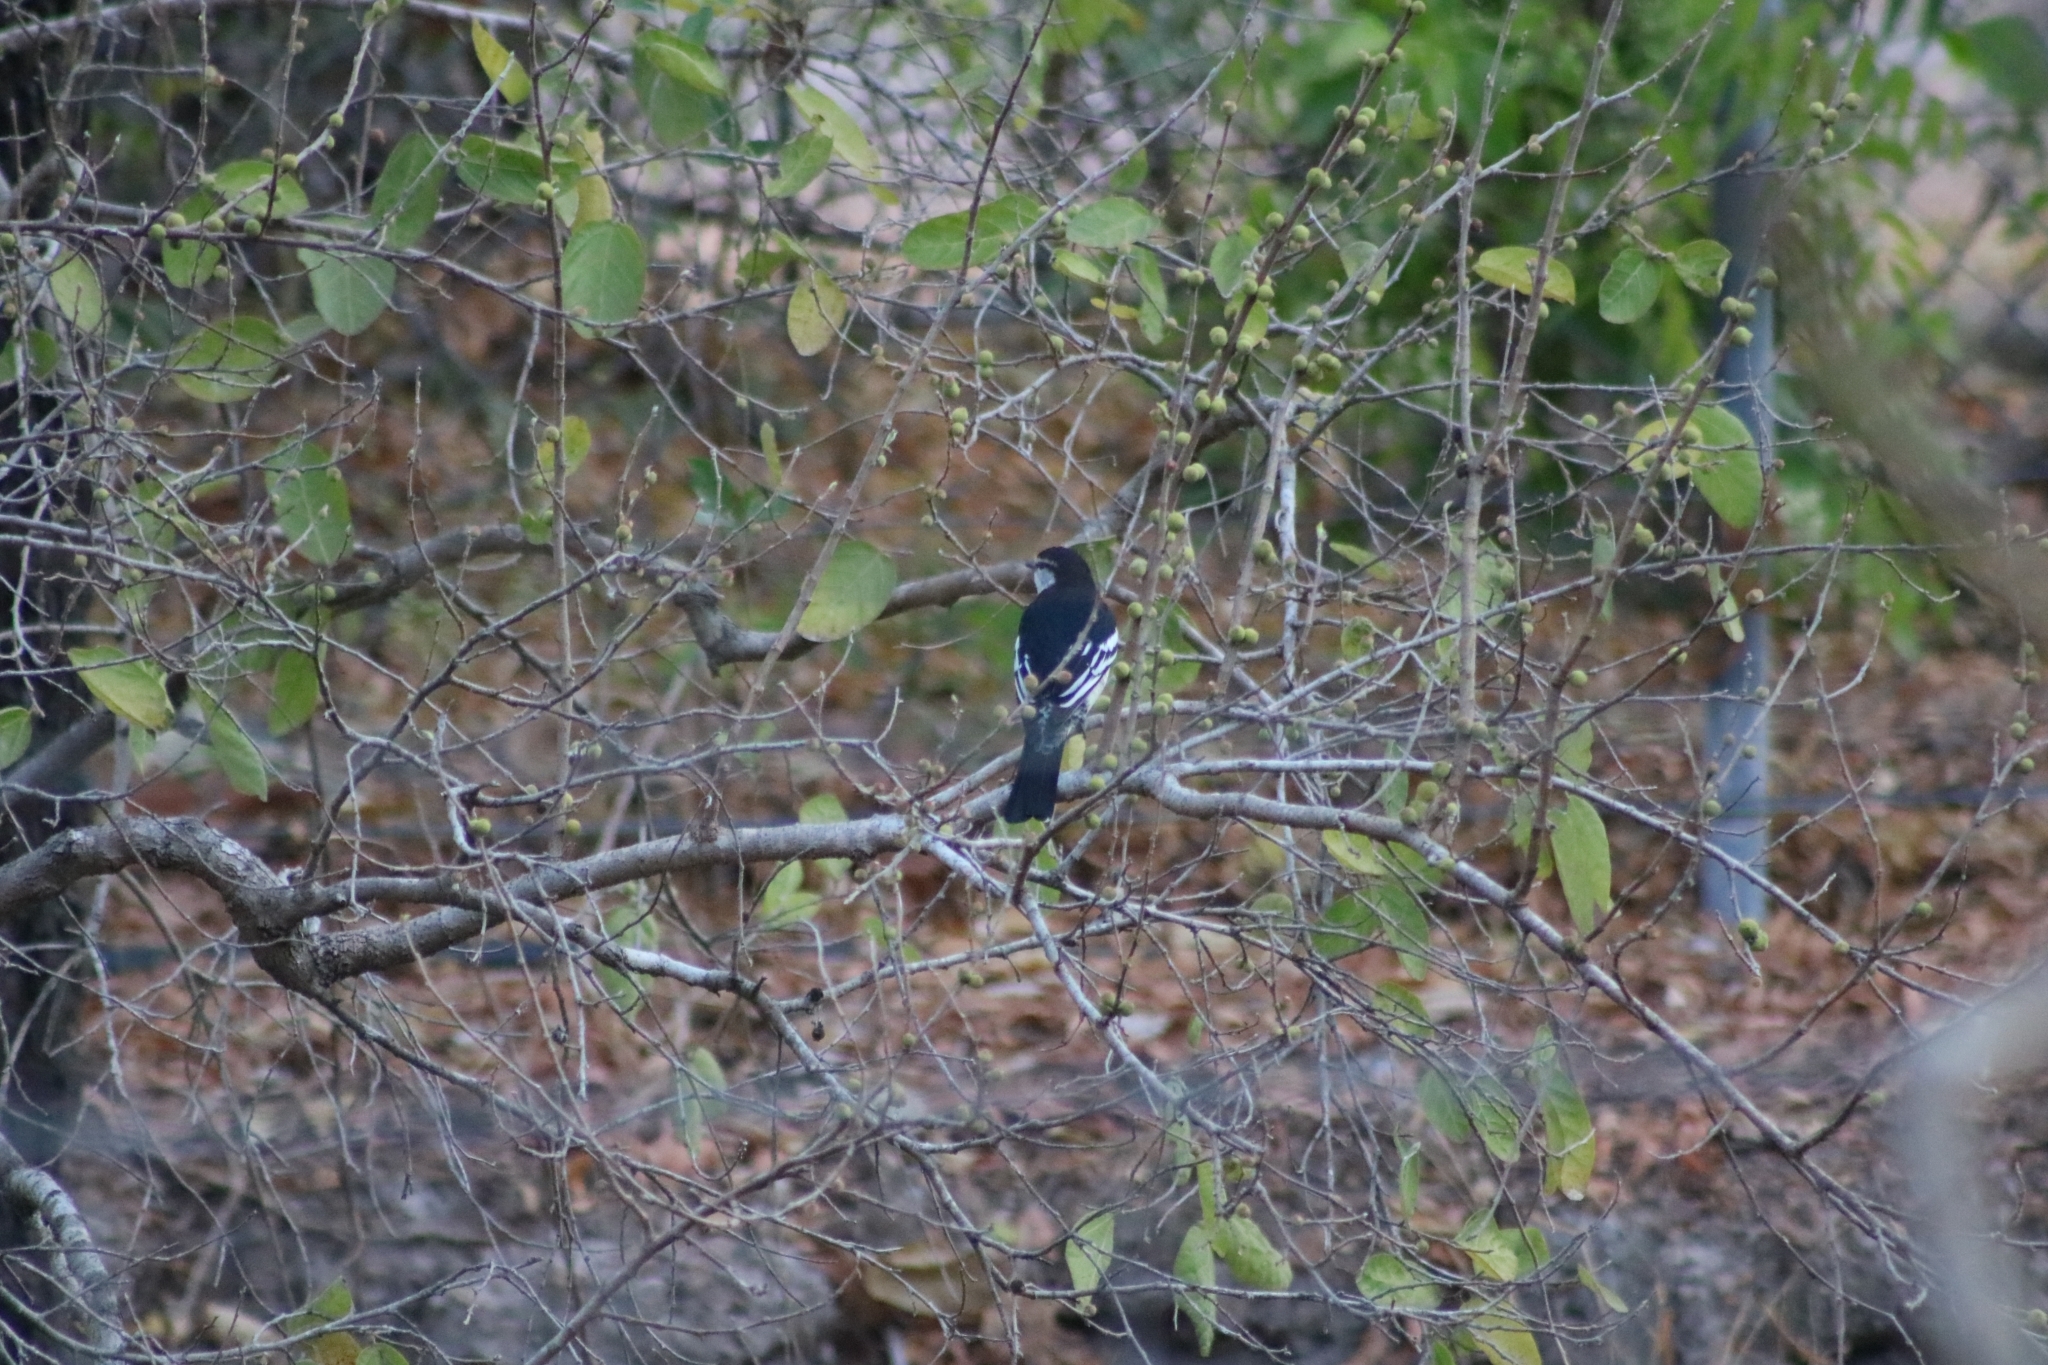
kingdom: Animalia
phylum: Chordata
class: Aves
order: Passeriformes
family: Campephagidae
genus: Lalage
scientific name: Lalage leucomela
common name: Varied triller
